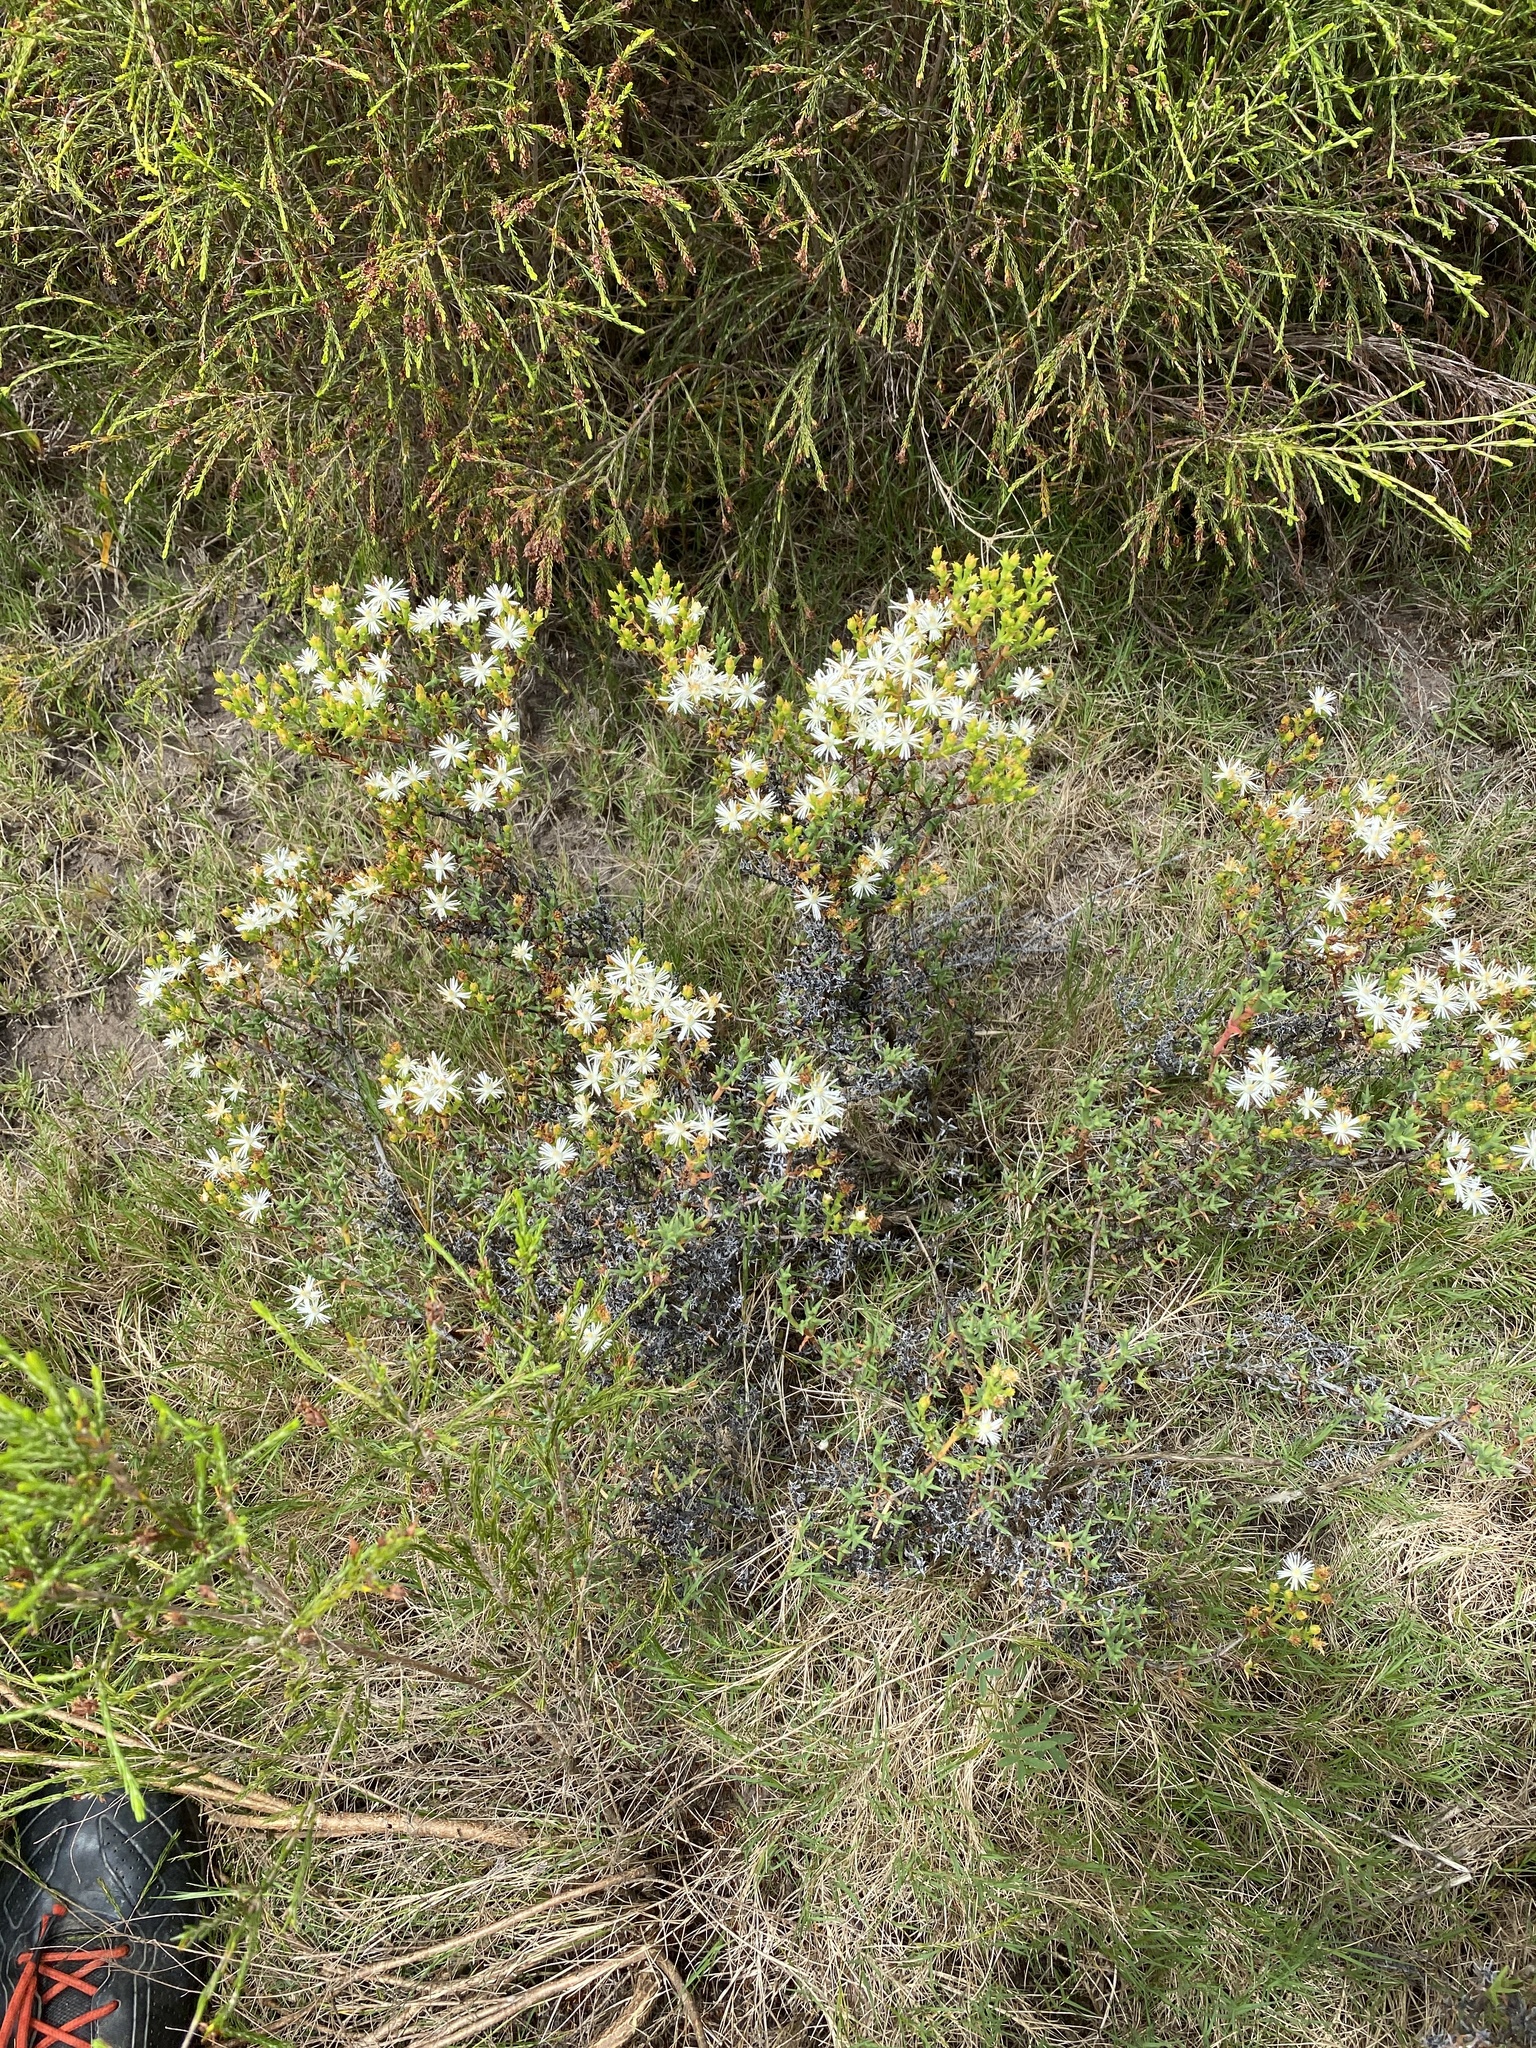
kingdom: Plantae
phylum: Tracheophyta
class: Magnoliopsida
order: Caryophyllales
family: Aizoaceae
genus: Ruschia
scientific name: Ruschia tenella
